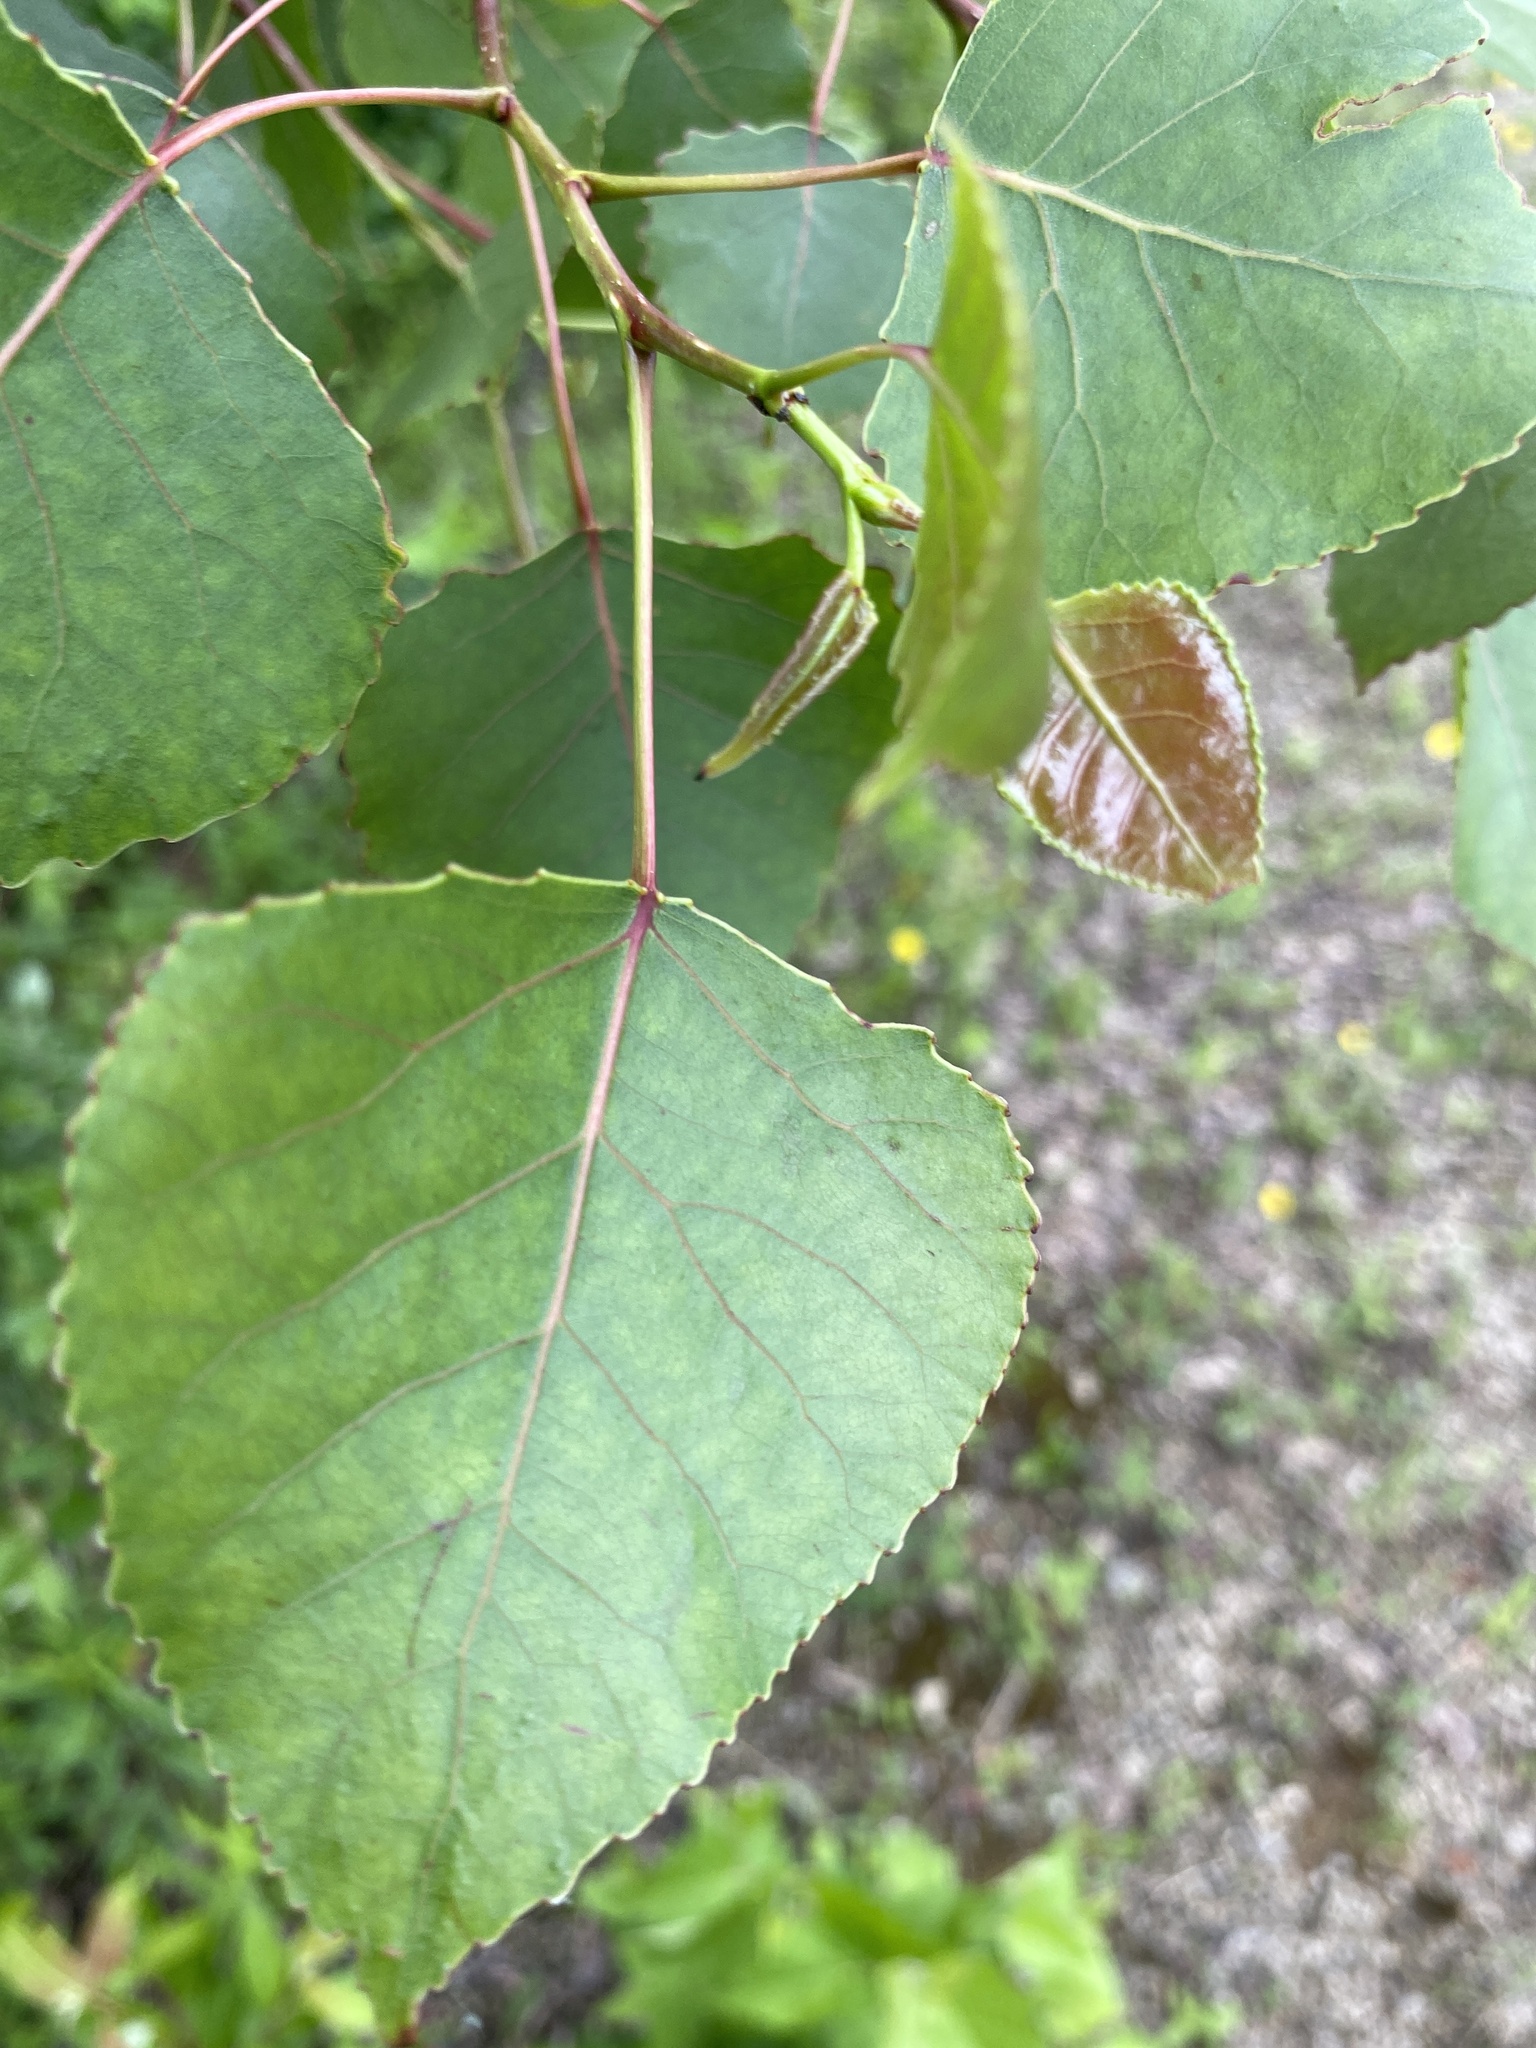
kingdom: Plantae
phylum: Tracheophyta
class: Magnoliopsida
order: Malpighiales
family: Salicaceae
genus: Populus
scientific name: Populus deltoides
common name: Eastern cottonwood
